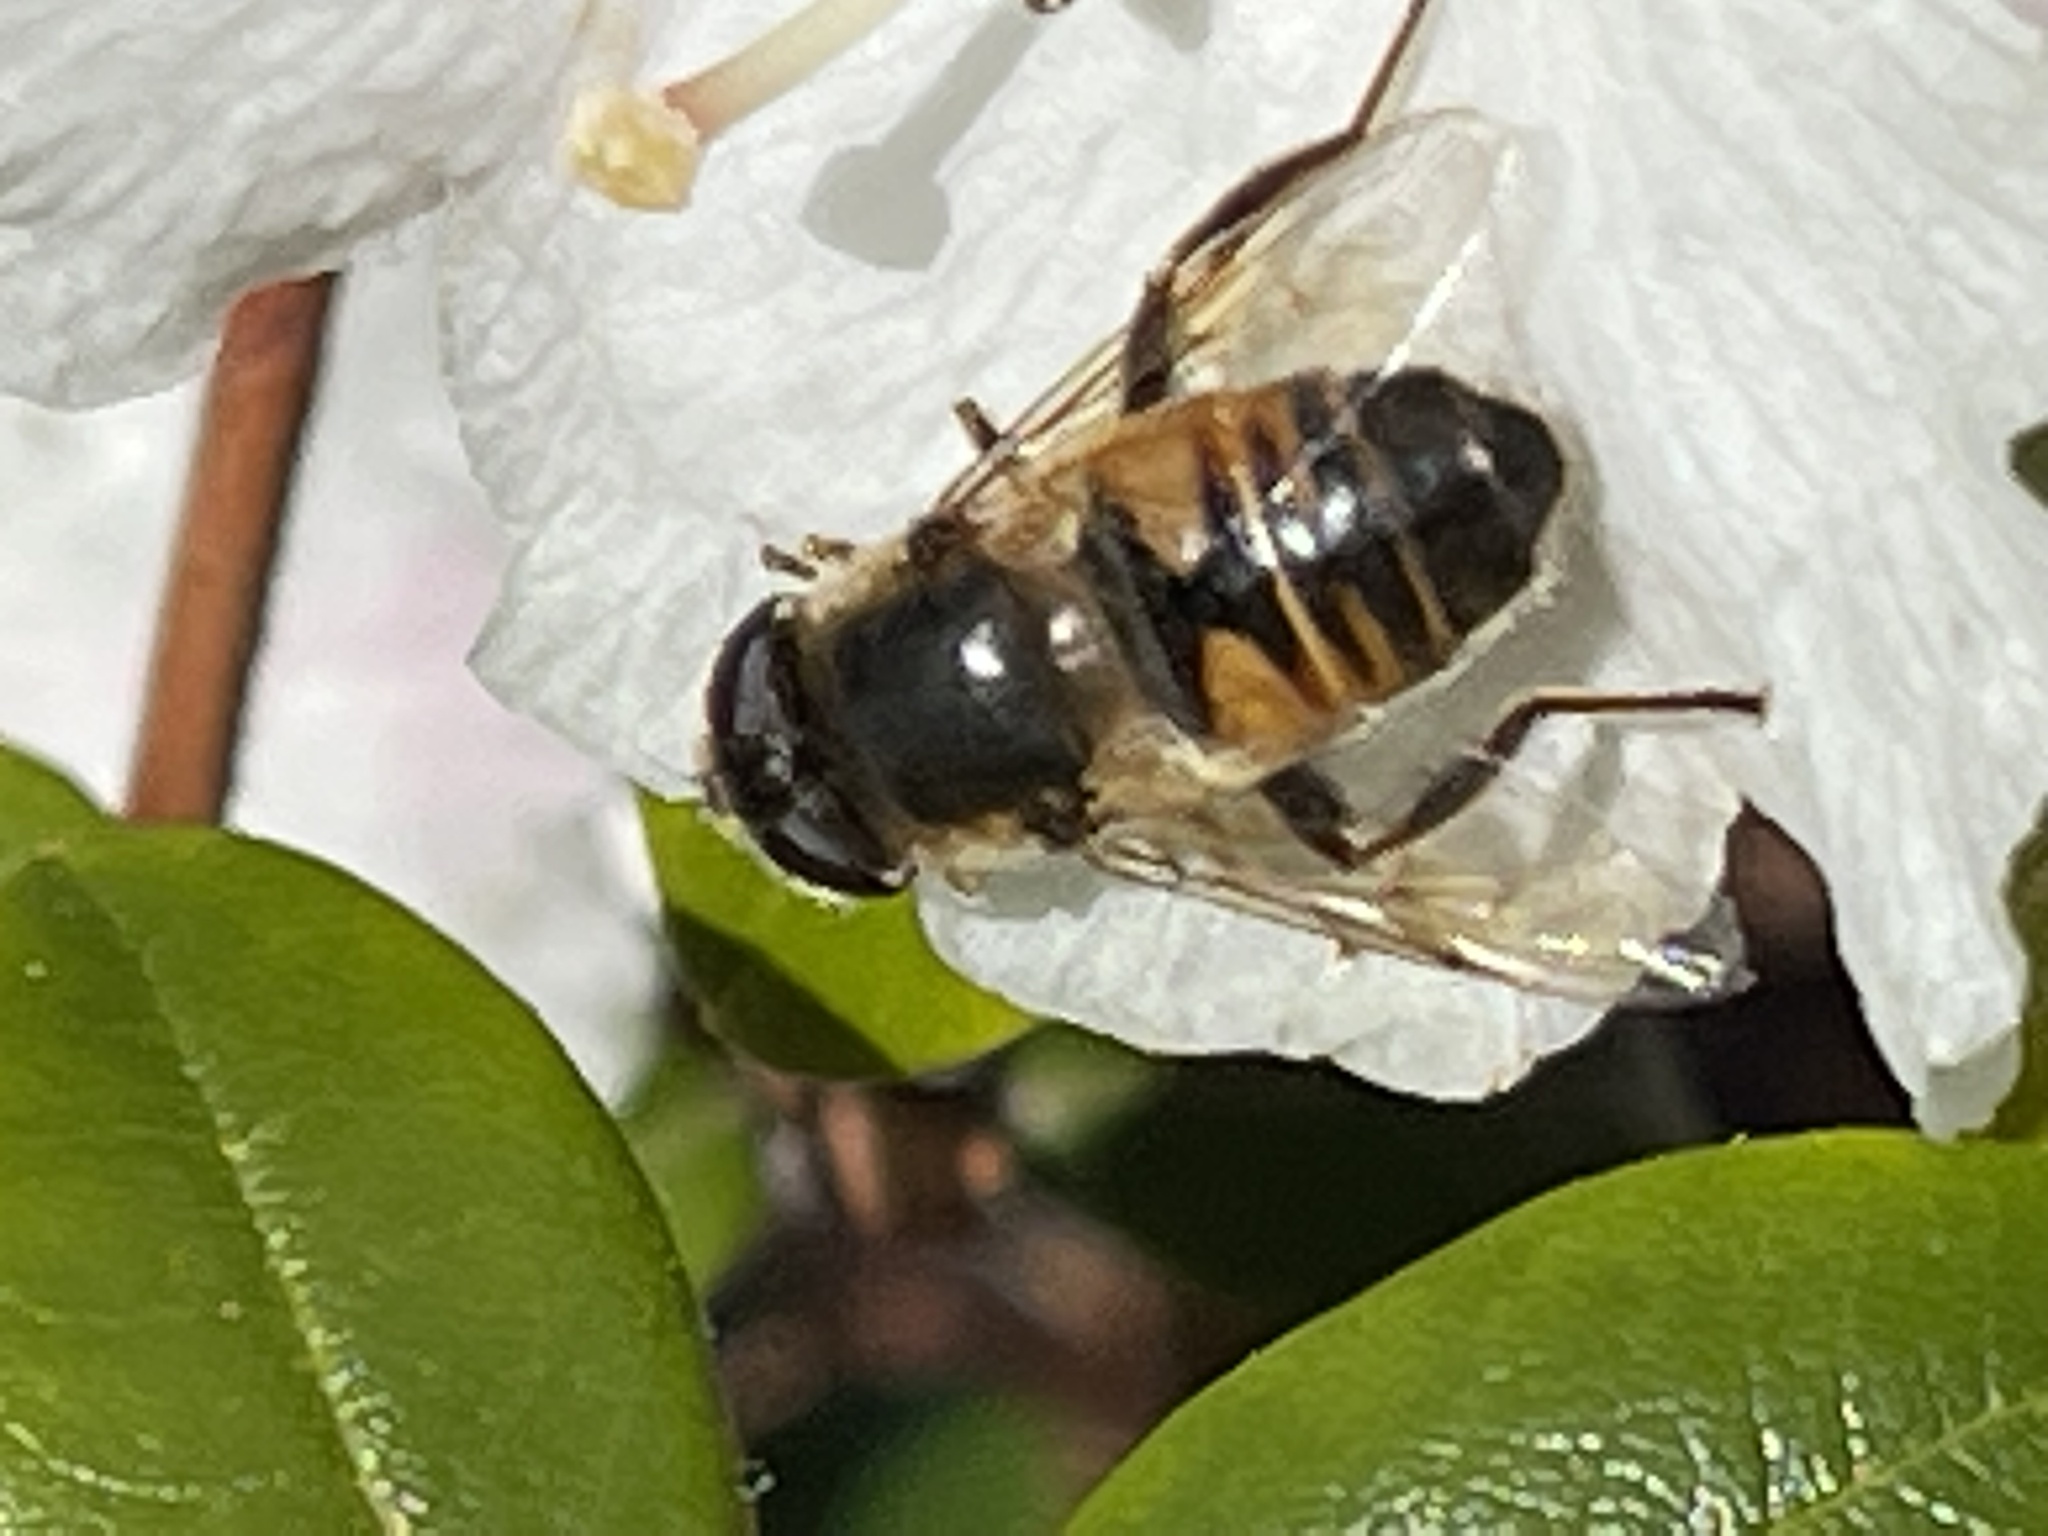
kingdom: Animalia
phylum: Arthropoda
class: Insecta
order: Diptera
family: Syrphidae
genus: Eristalis
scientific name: Eristalis tenax
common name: Drone fly
